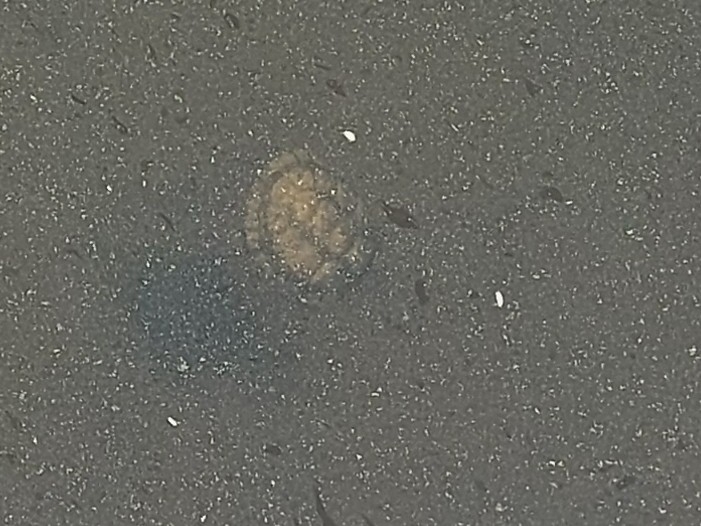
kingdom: Animalia
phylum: Chordata
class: Testudines
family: Pelomedusidae
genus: Pelomedusa
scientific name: Pelomedusa galeata
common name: South african helmeted terrapin
